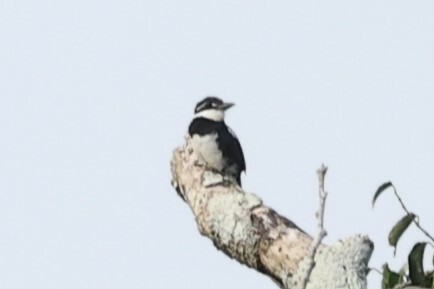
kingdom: Animalia
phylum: Chordata
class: Aves
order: Piciformes
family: Bucconidae
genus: Notharchus
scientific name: Notharchus tectus
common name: Pied puffbird
